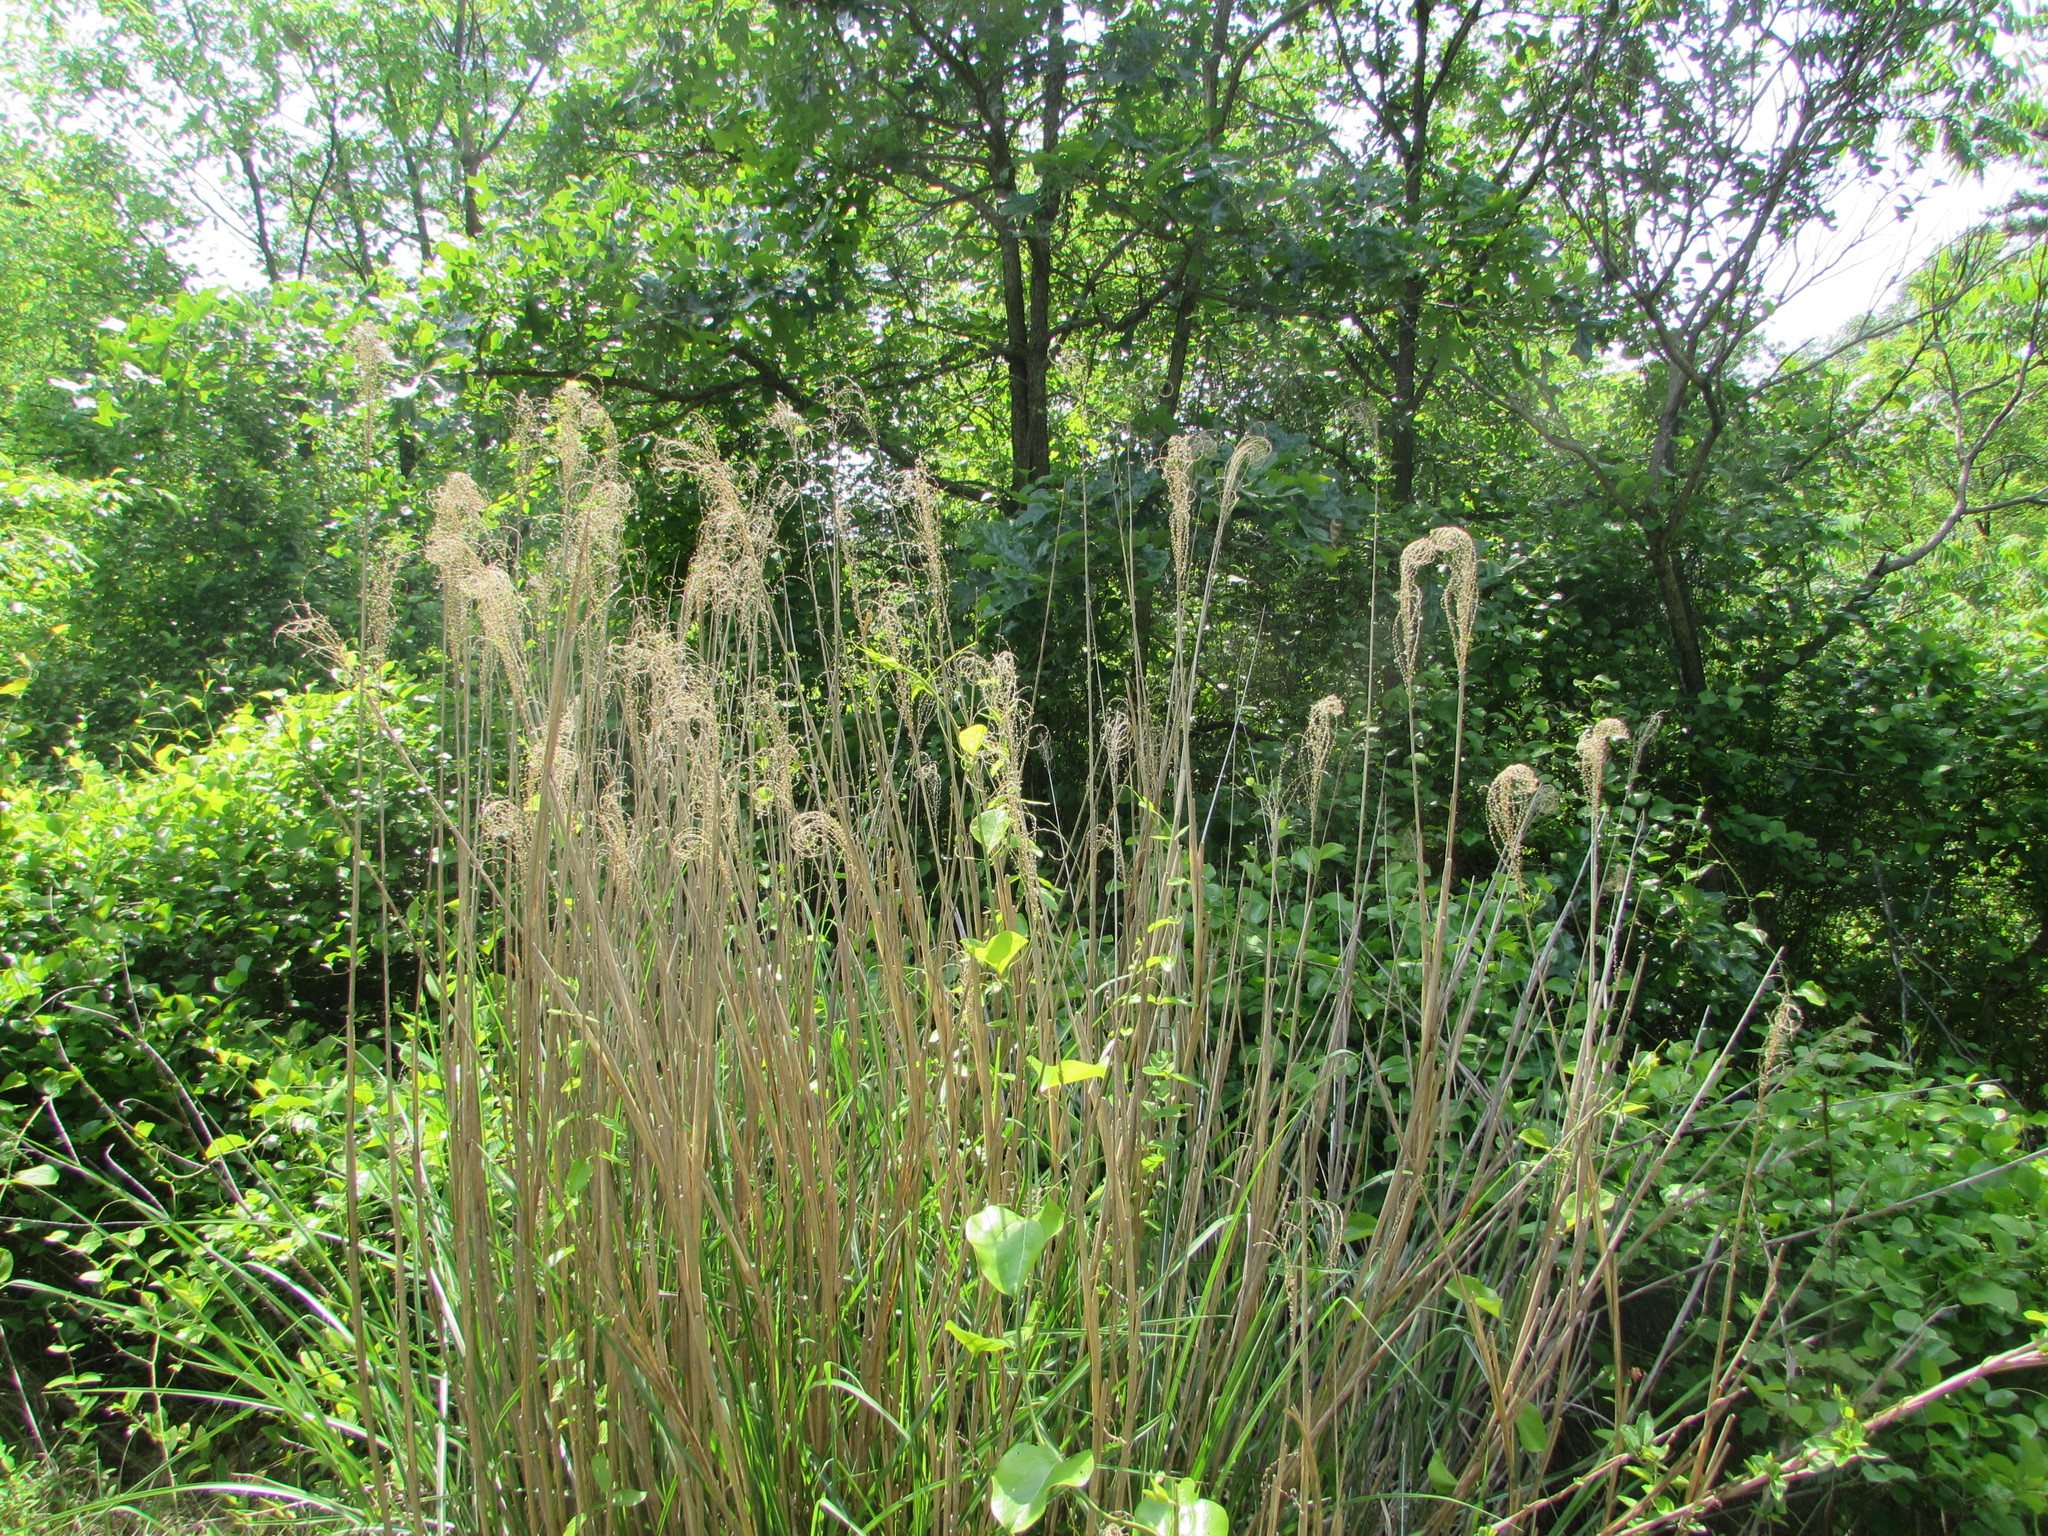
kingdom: Plantae
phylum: Tracheophyta
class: Liliopsida
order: Poales
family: Poaceae
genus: Miscanthus
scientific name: Miscanthus sinensis
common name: Chinese silvergrass
